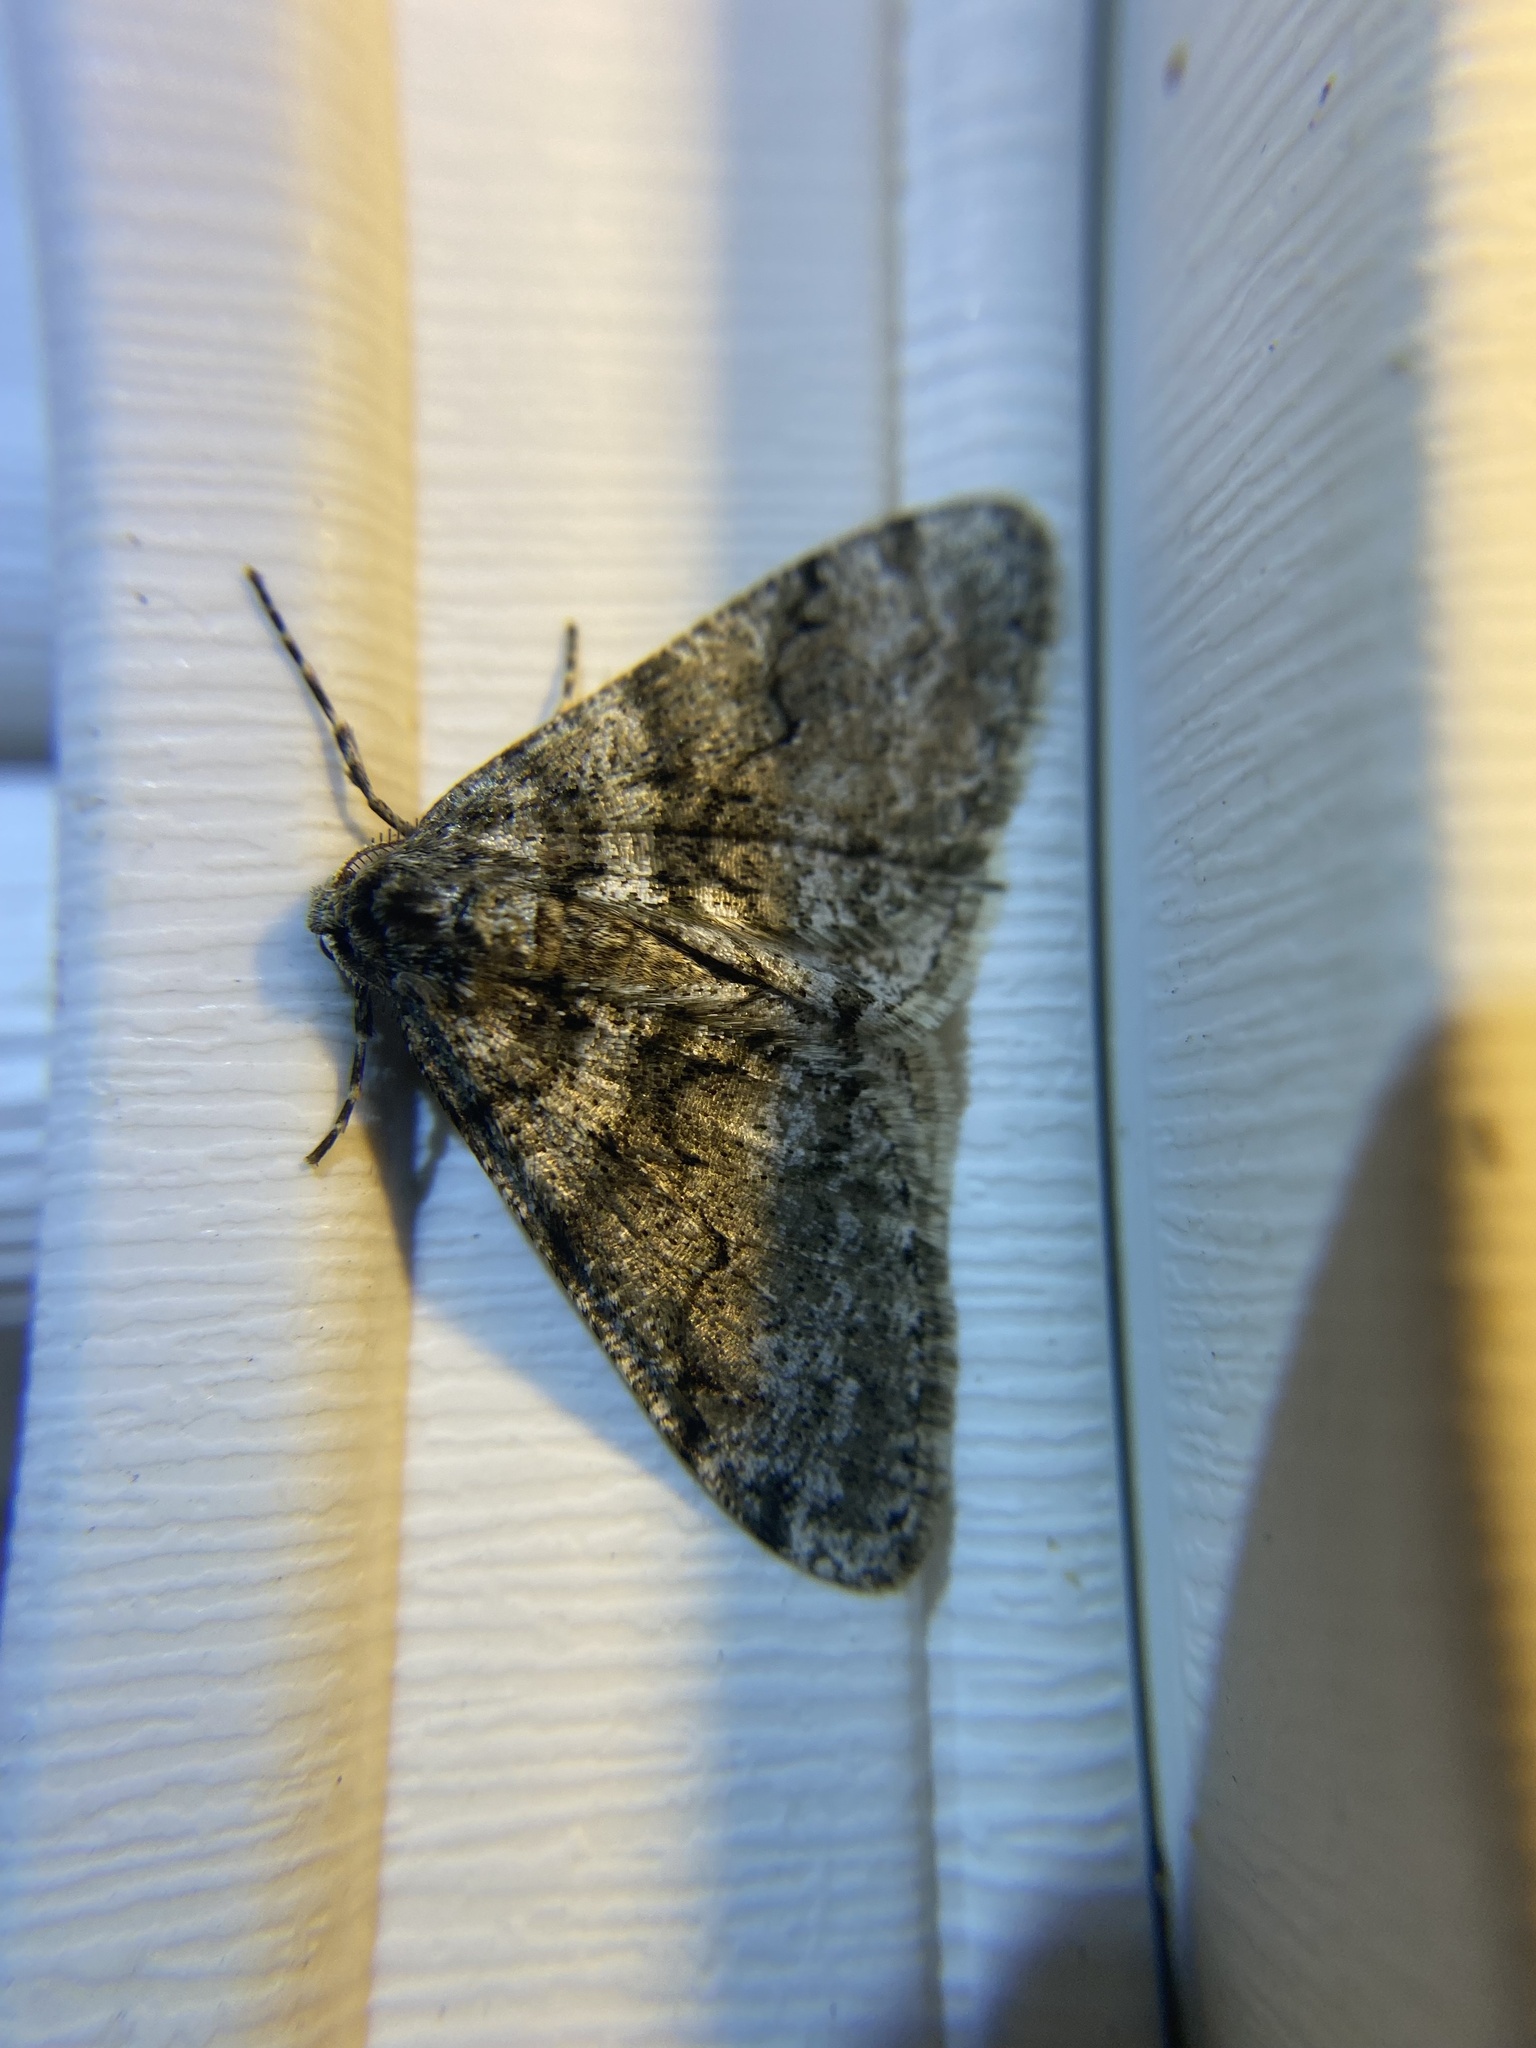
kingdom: Animalia
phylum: Arthropoda
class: Insecta
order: Lepidoptera
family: Geometridae
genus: Phigalia
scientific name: Phigalia denticulata
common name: Toothed phigalia
